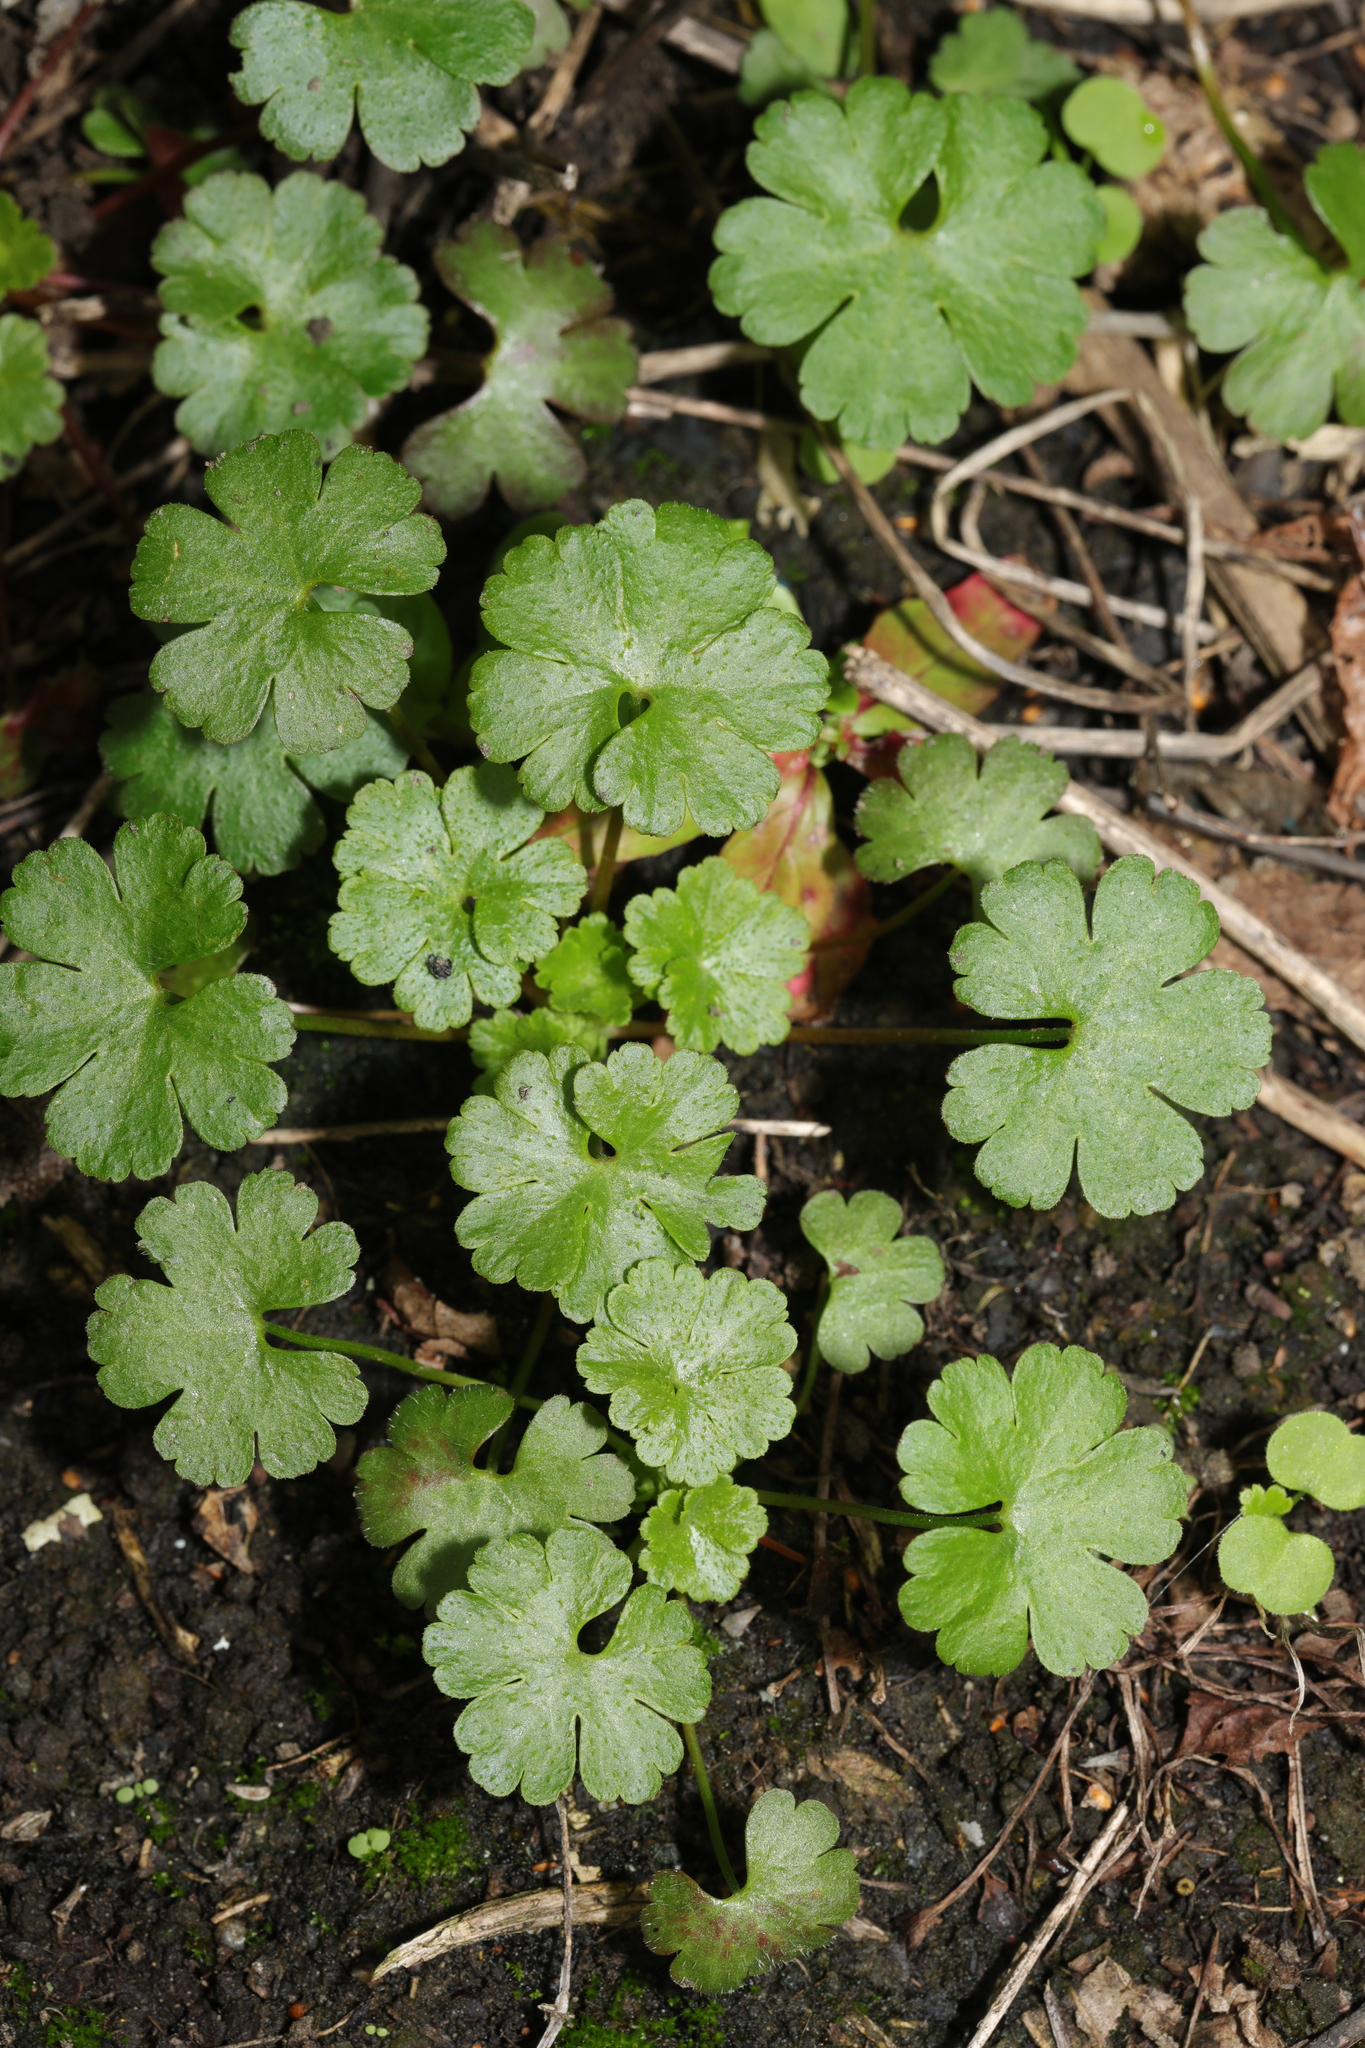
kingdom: Plantae
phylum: Tracheophyta
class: Magnoliopsida
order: Geraniales
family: Geraniaceae
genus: Geranium
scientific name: Geranium lucidum
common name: Shining crane's-bill
